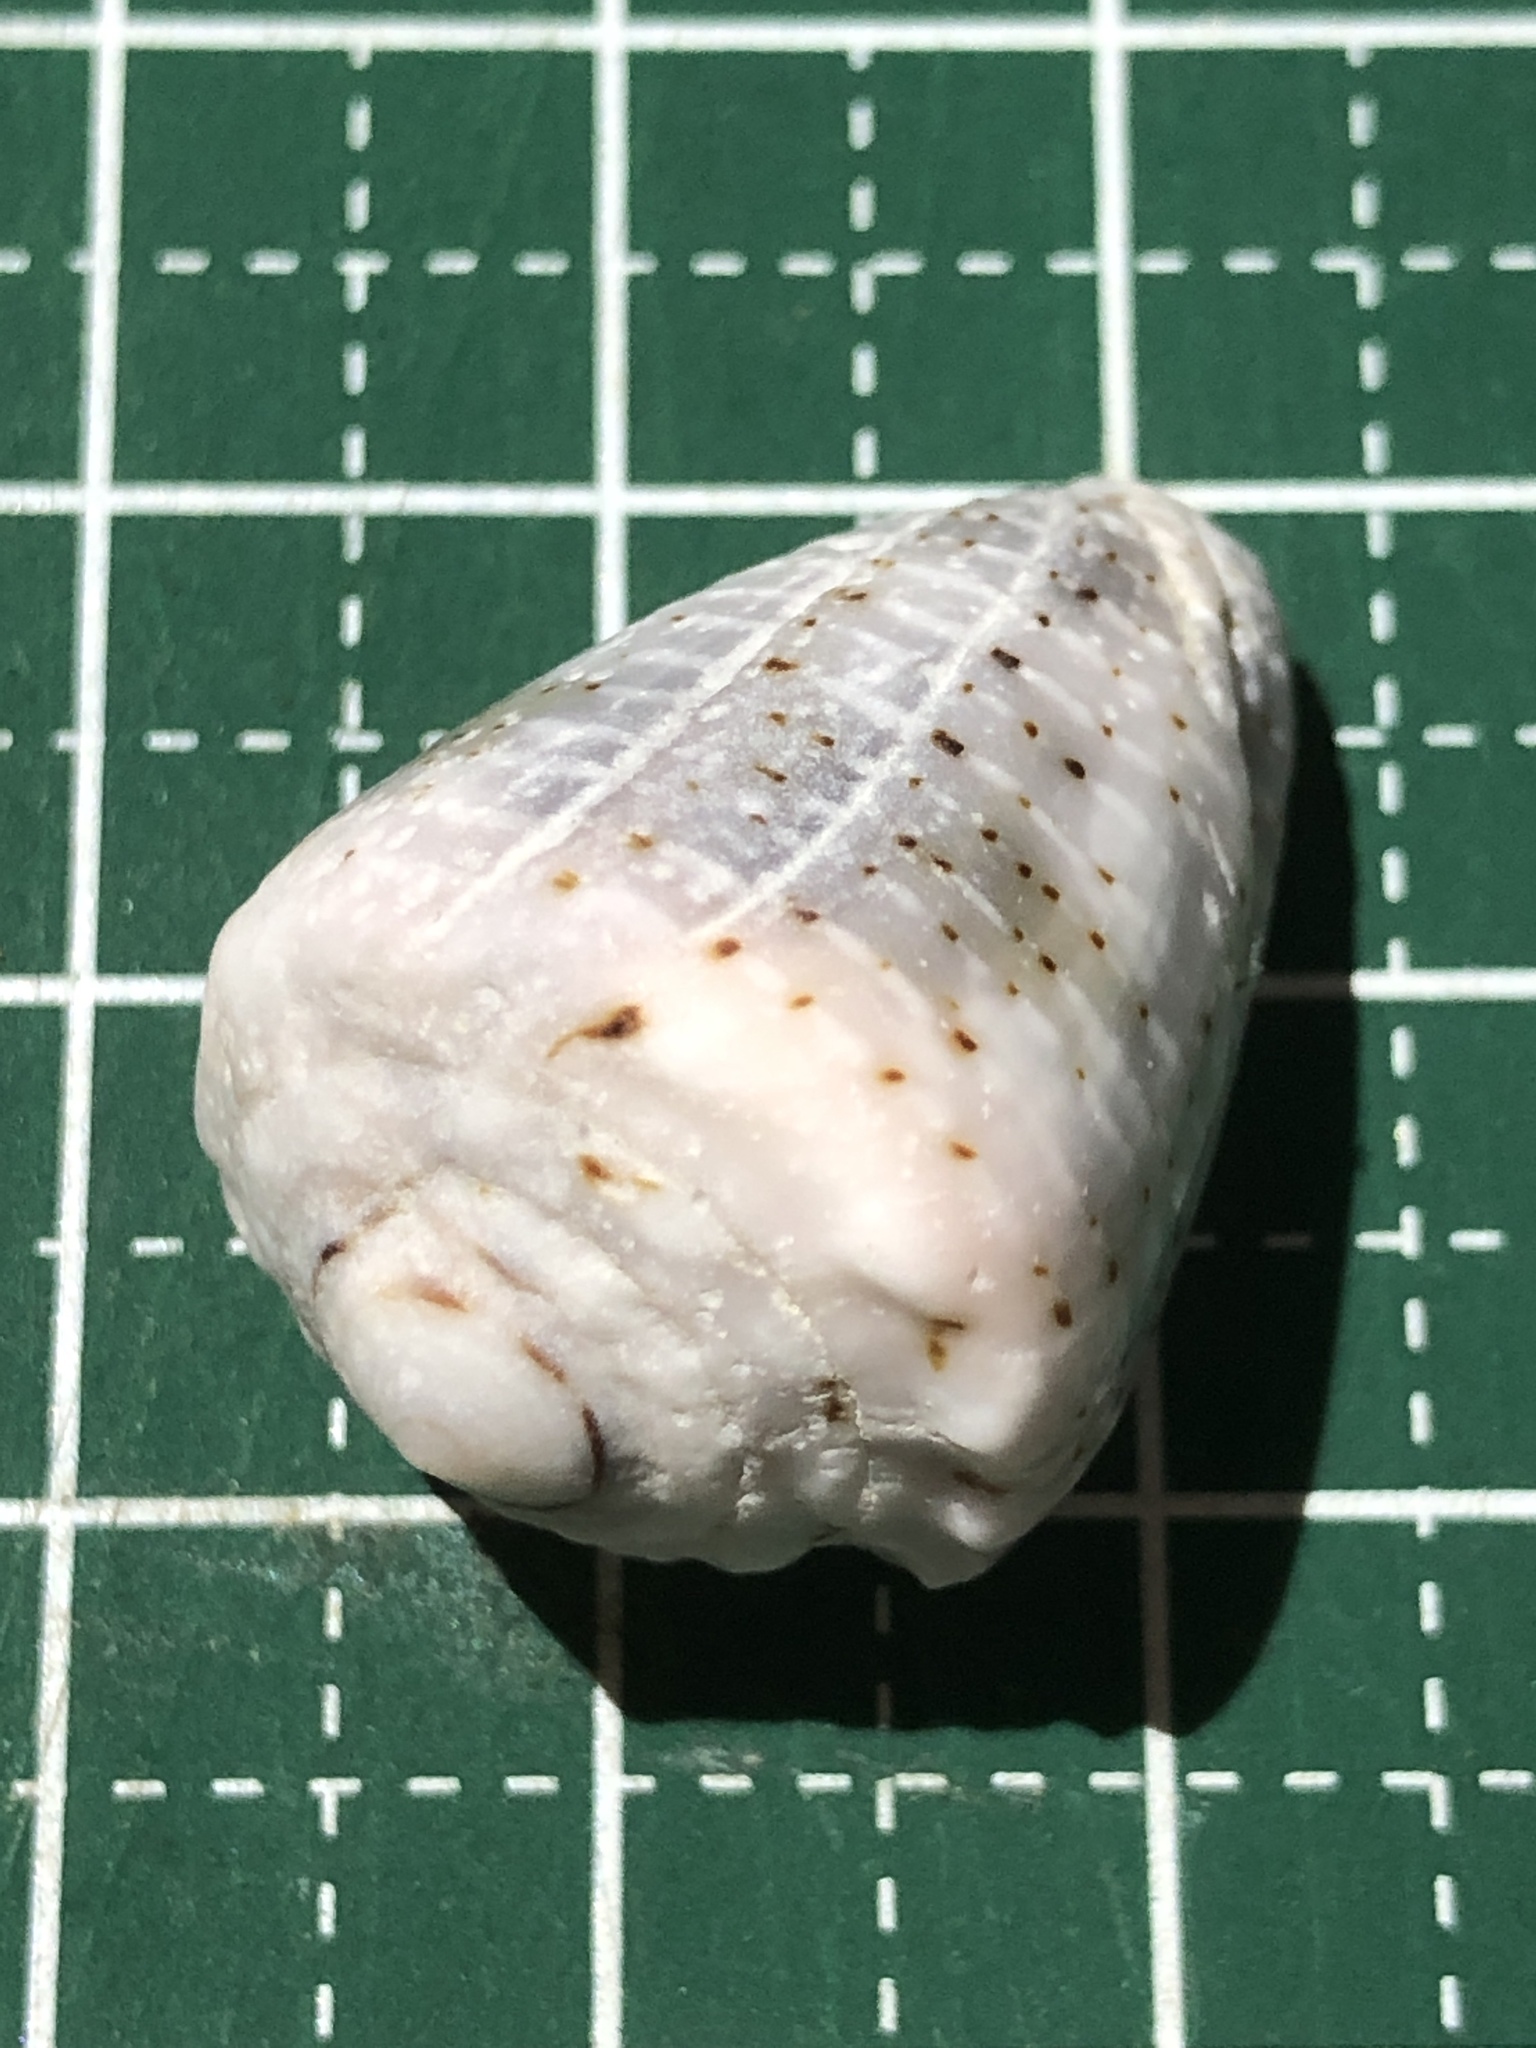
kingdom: Animalia
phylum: Mollusca
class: Gastropoda
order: Neogastropoda
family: Conidae
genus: Conus
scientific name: Conus coronatus
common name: Coronated cone
